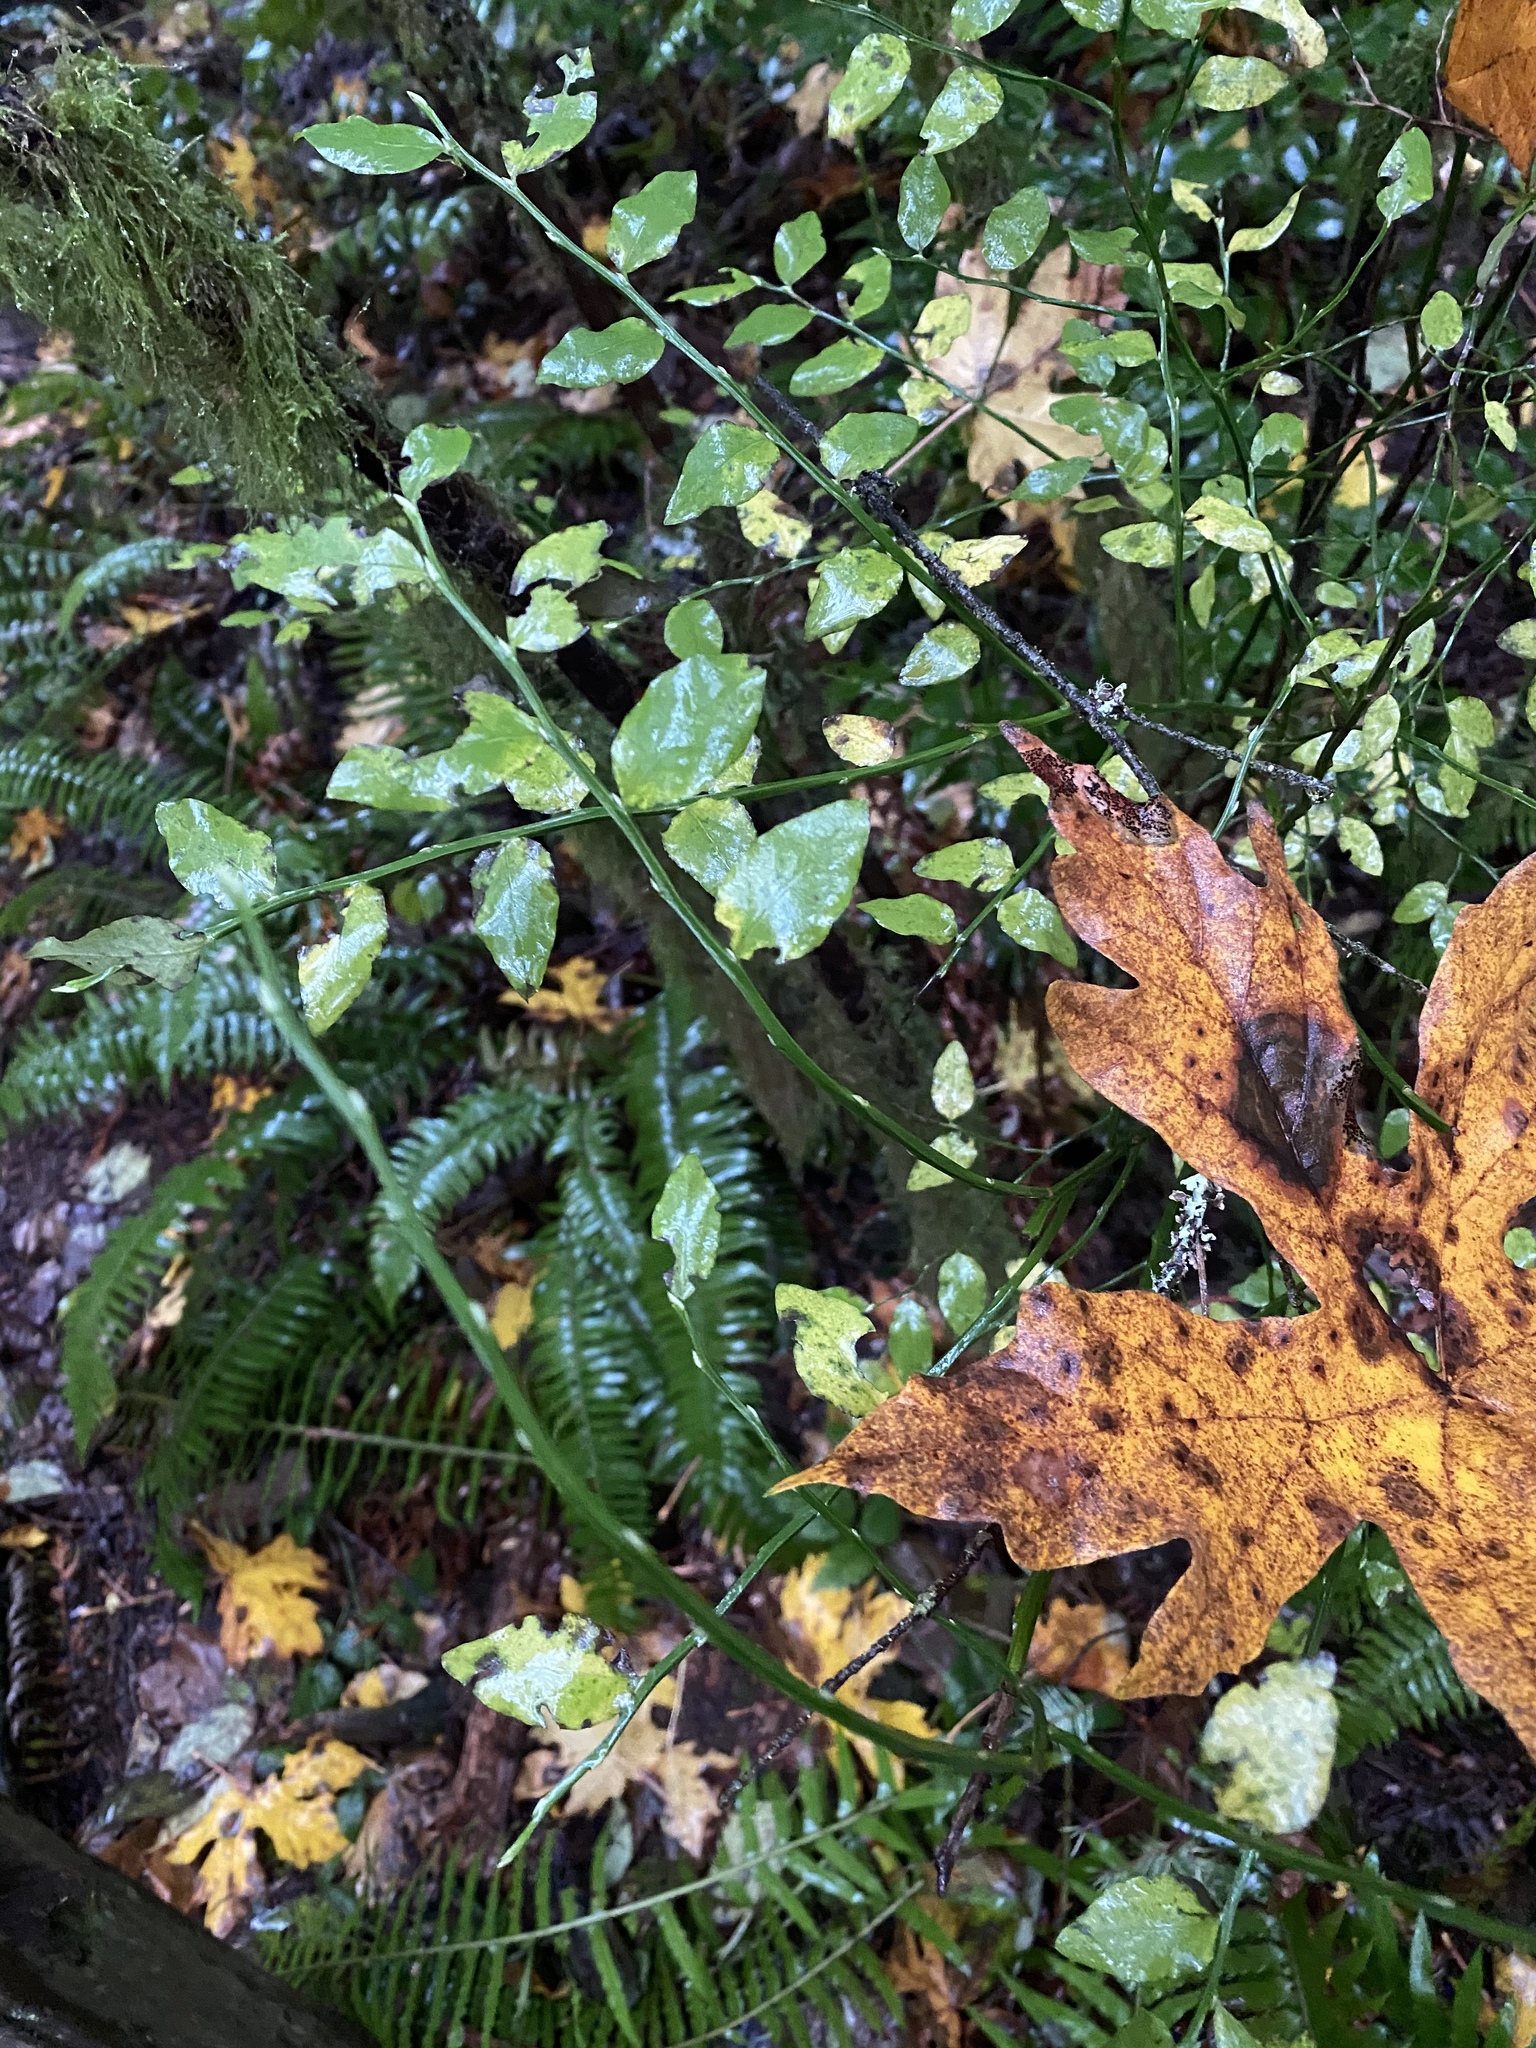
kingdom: Plantae
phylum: Tracheophyta
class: Magnoliopsida
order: Ericales
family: Ericaceae
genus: Vaccinium
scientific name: Vaccinium parvifolium
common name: Red-huckleberry
